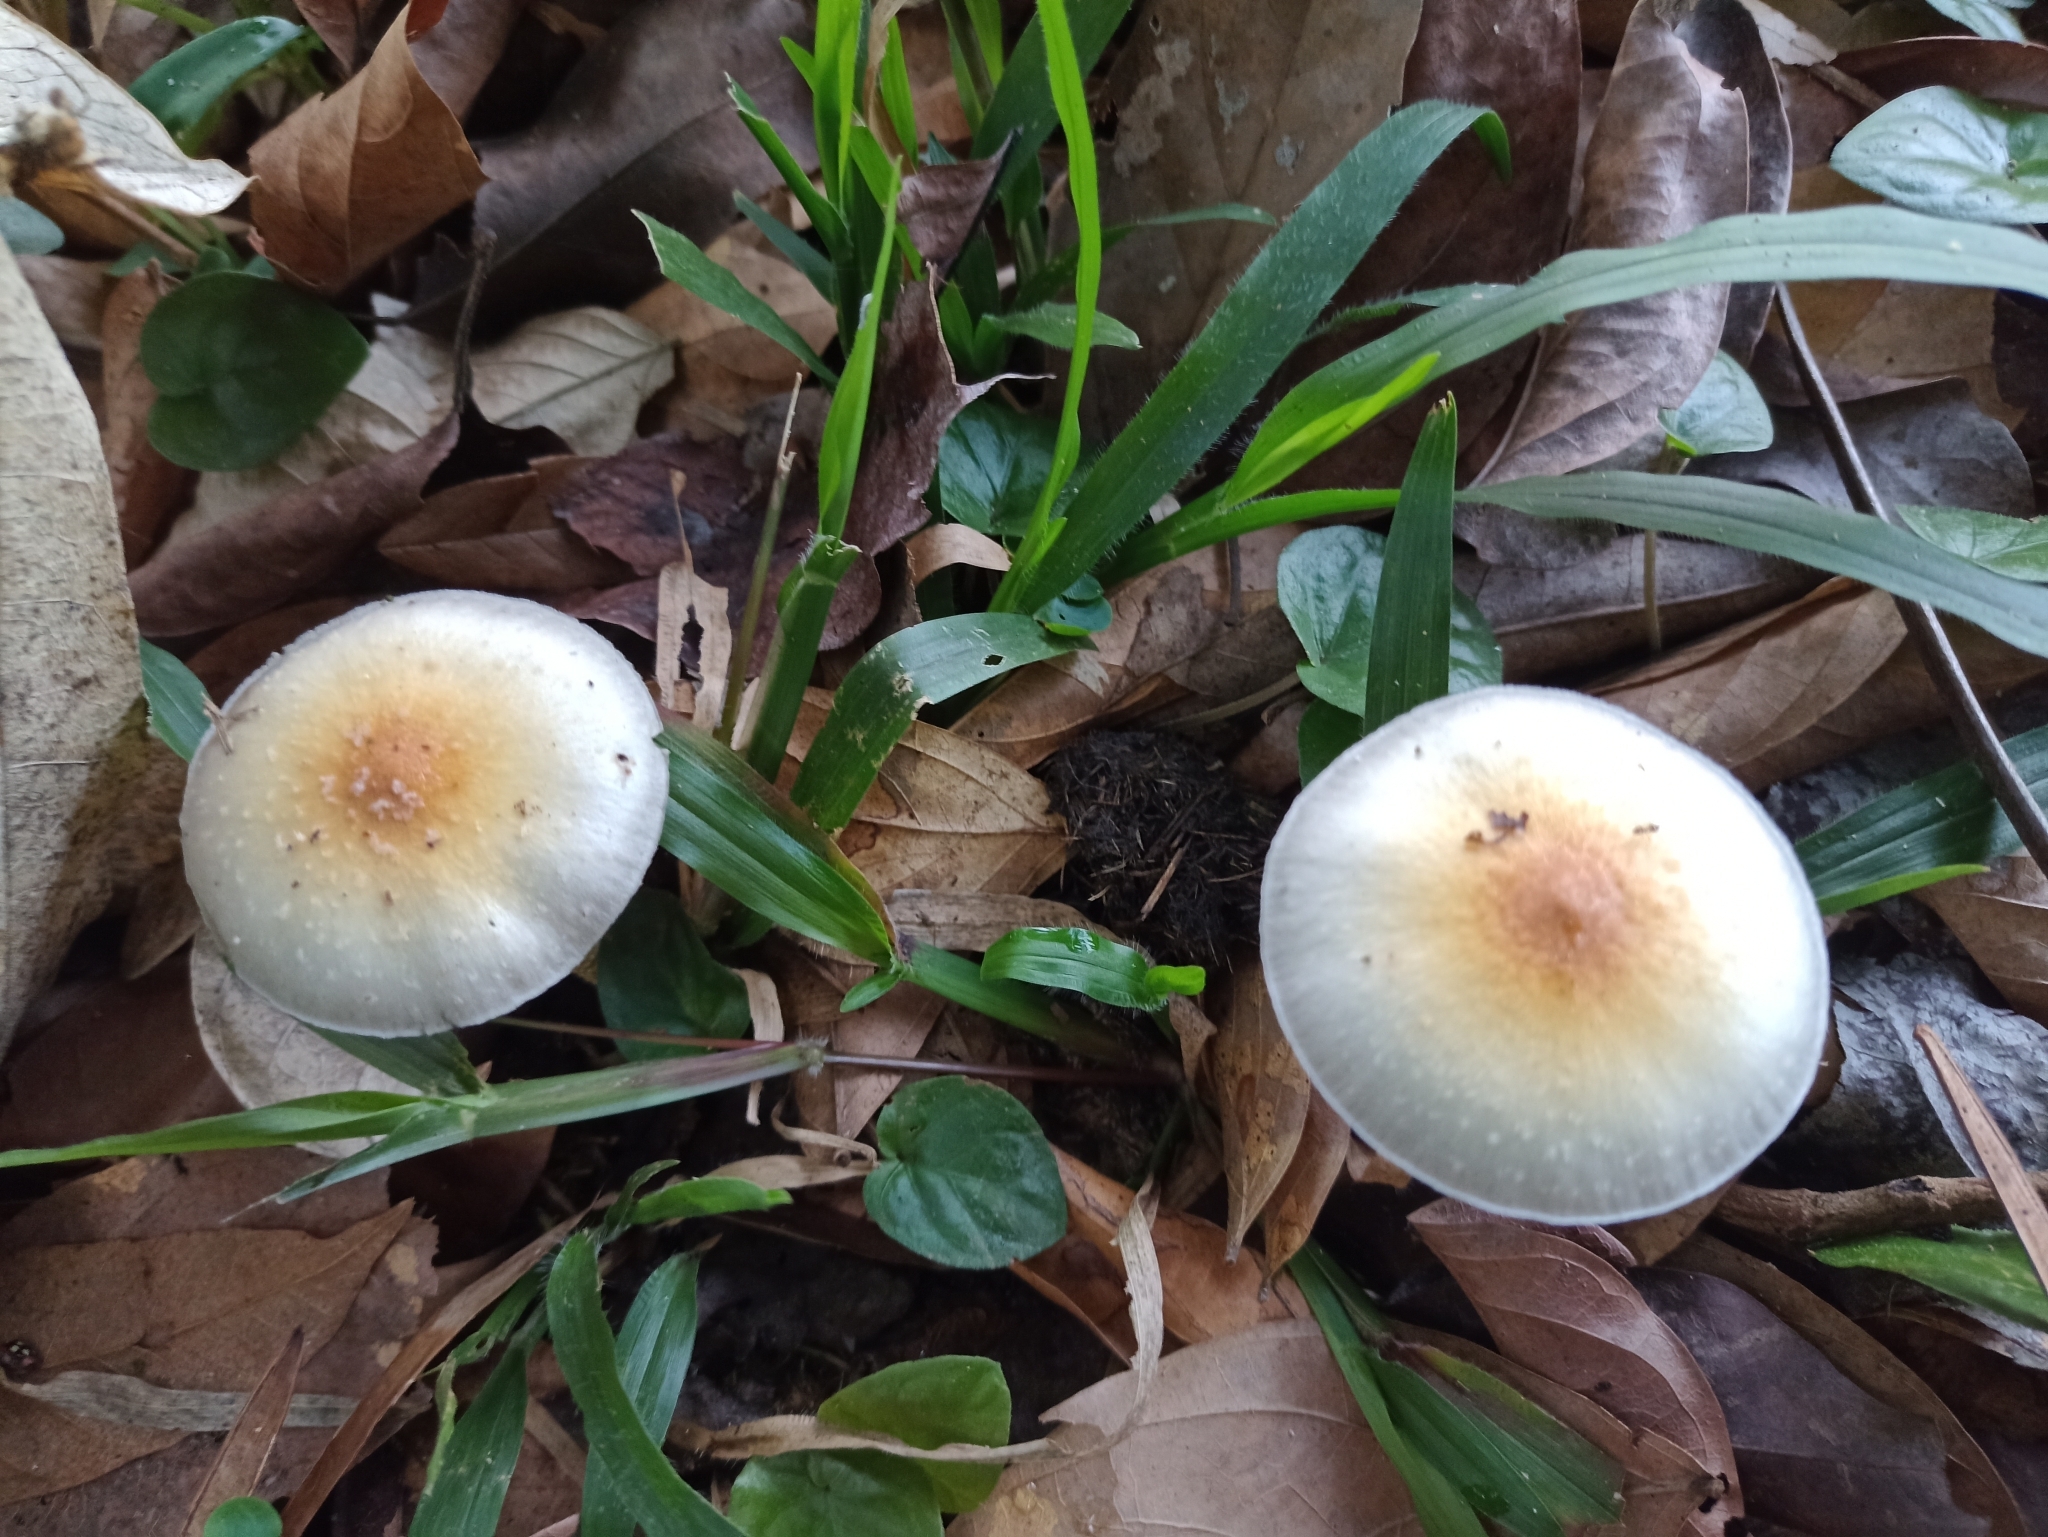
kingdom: Fungi
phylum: Basidiomycota
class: Agaricomycetes
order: Agaricales
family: Hymenogastraceae
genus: Psilocybe
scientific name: Psilocybe cubensis
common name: Golden brownie
